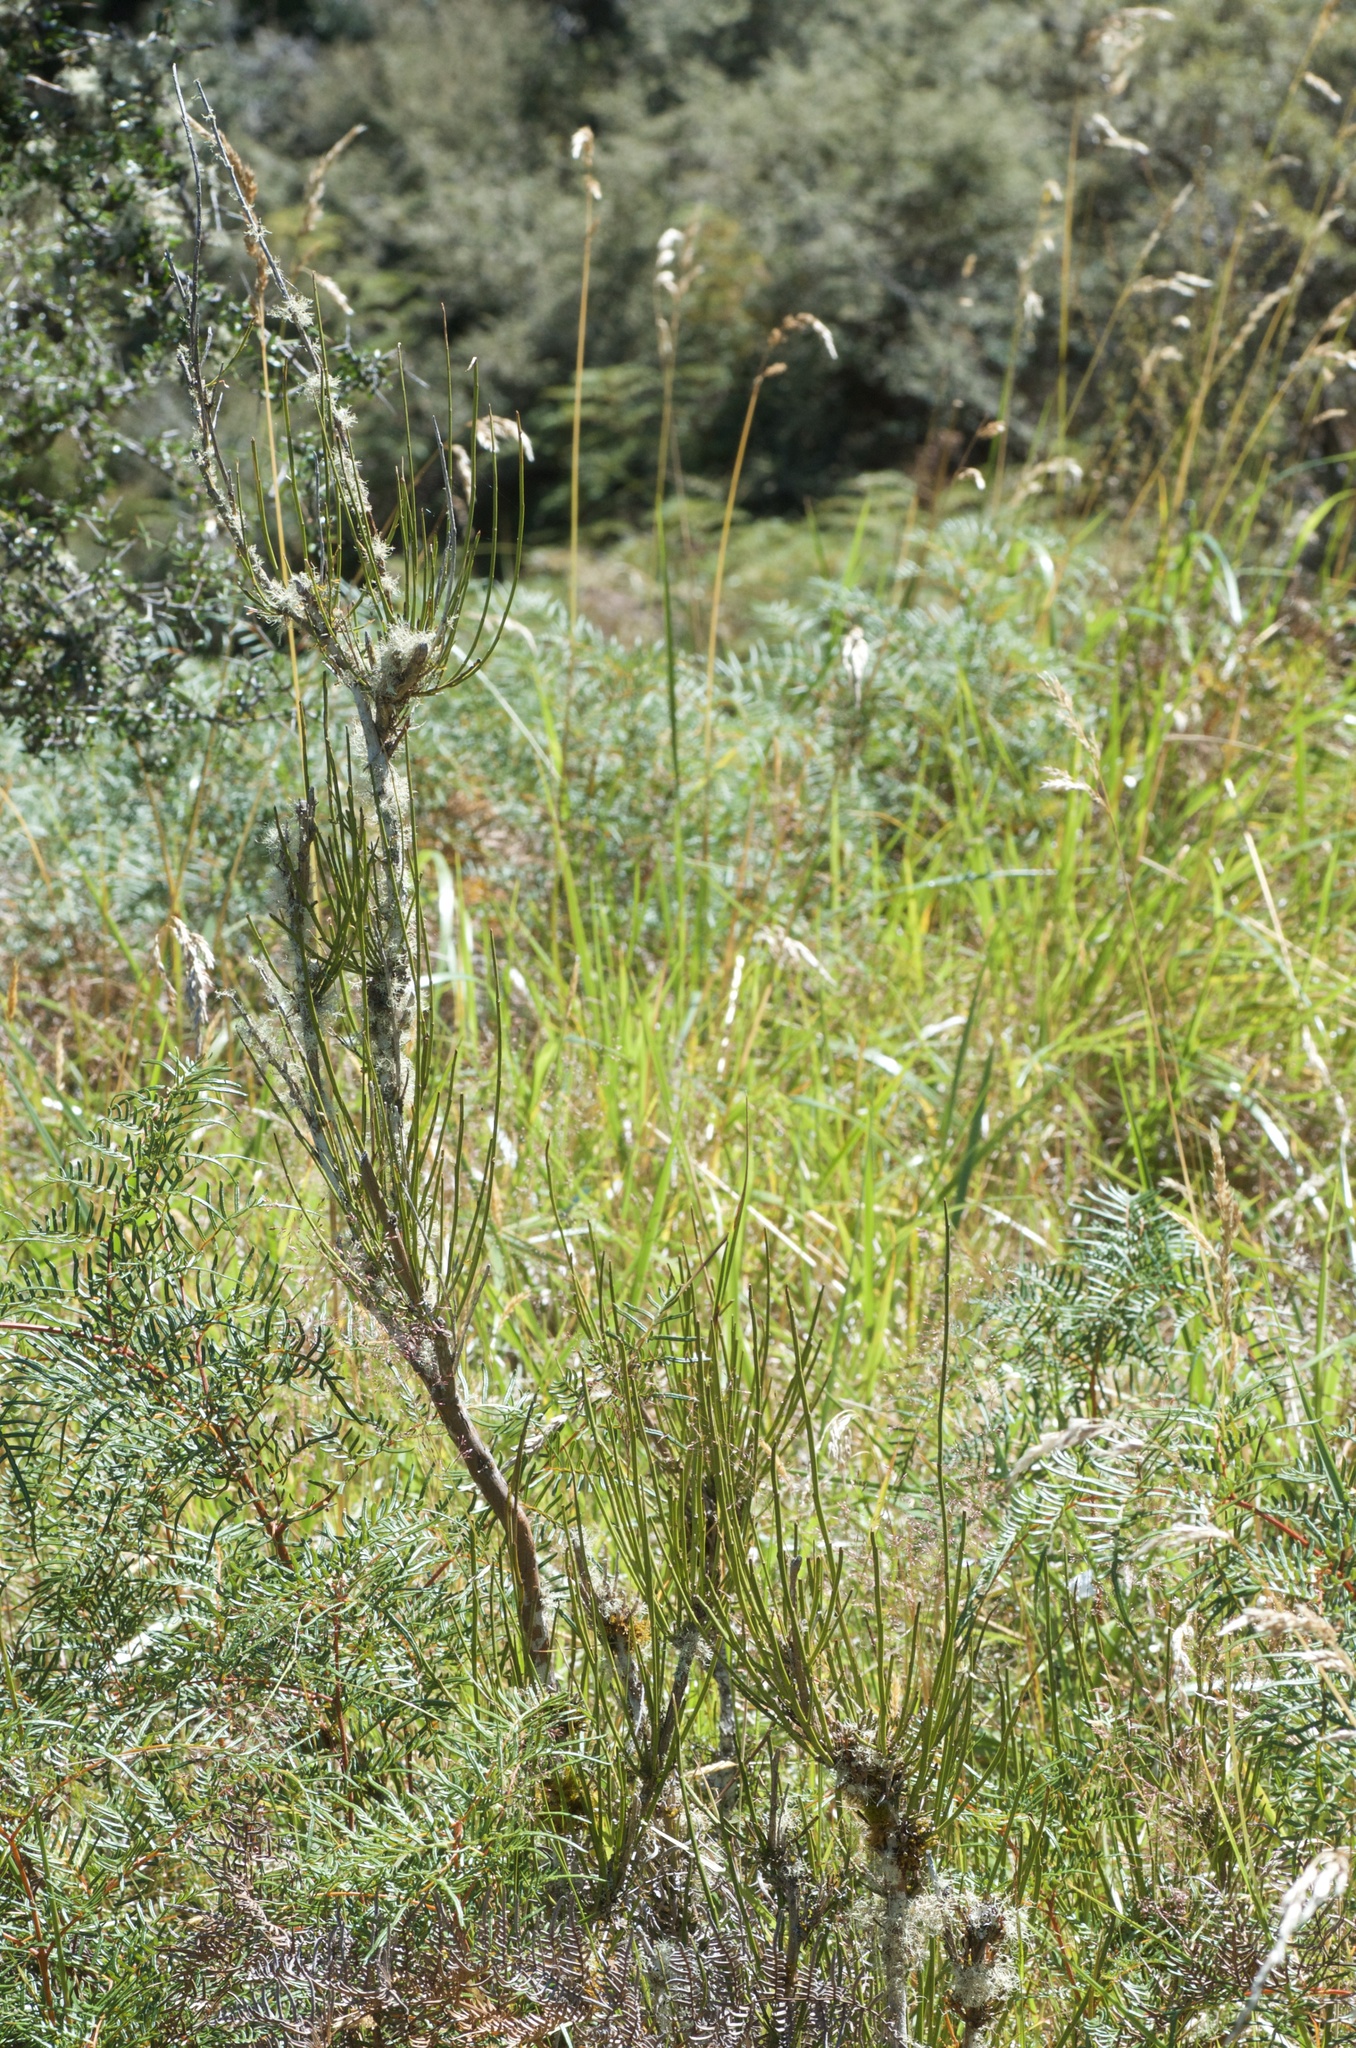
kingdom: Plantae
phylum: Tracheophyta
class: Magnoliopsida
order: Fabales
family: Fabaceae
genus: Carmichaelia
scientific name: Carmichaelia australis
